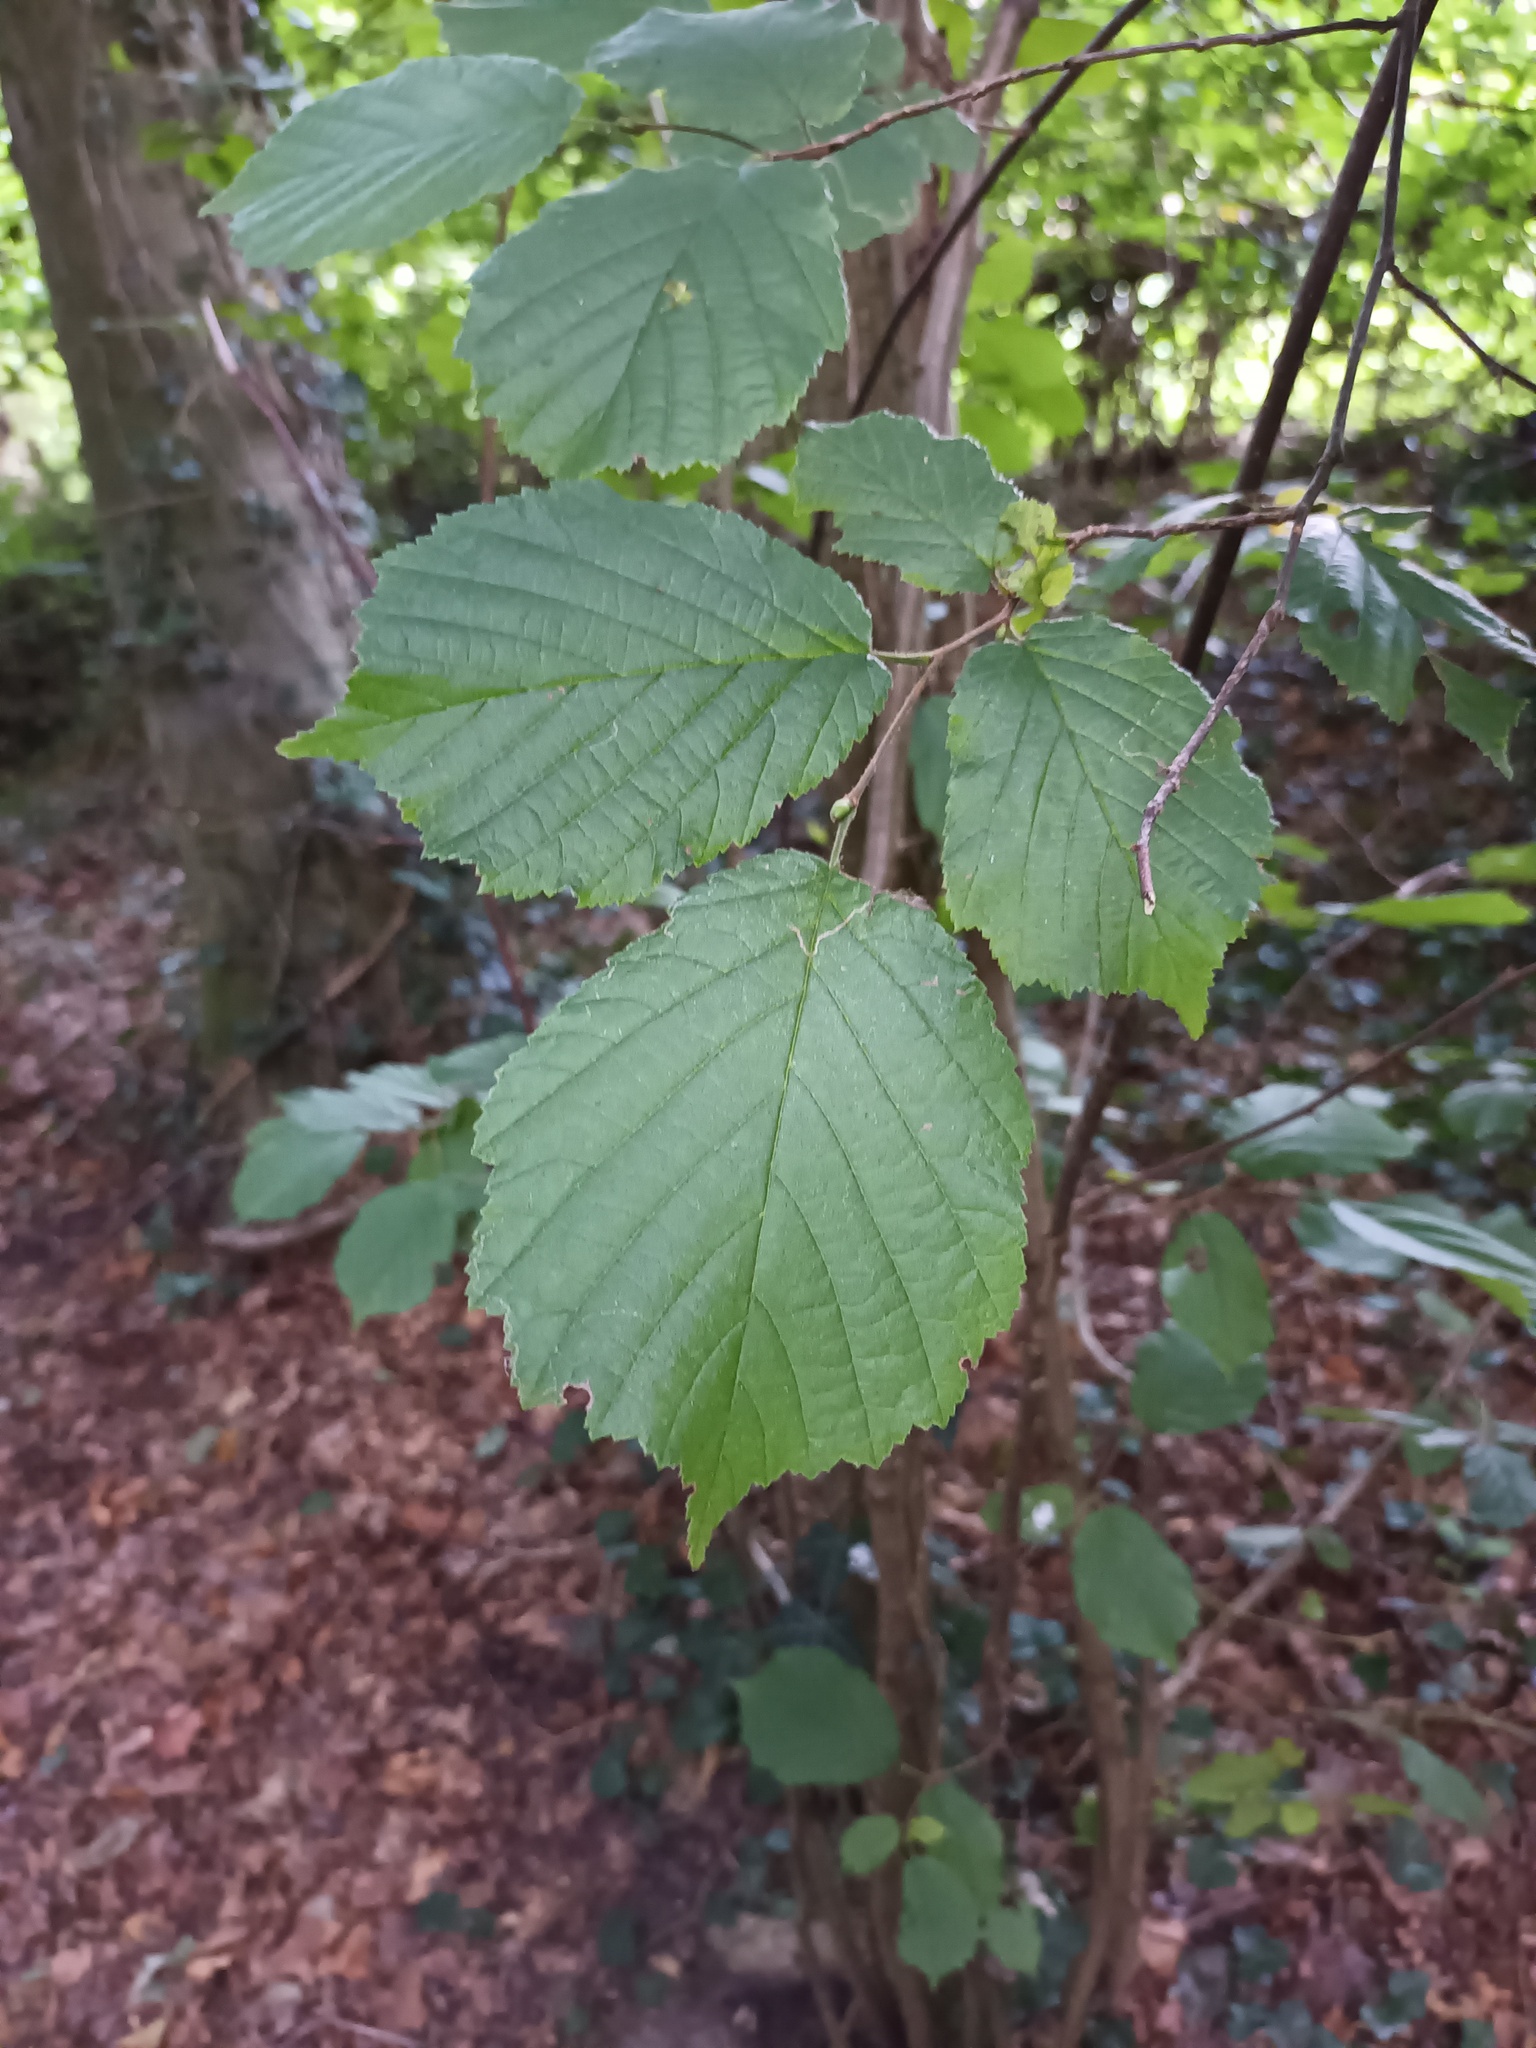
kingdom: Plantae
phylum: Tracheophyta
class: Magnoliopsida
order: Fagales
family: Betulaceae
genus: Corylus
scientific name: Corylus avellana
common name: European hazel
